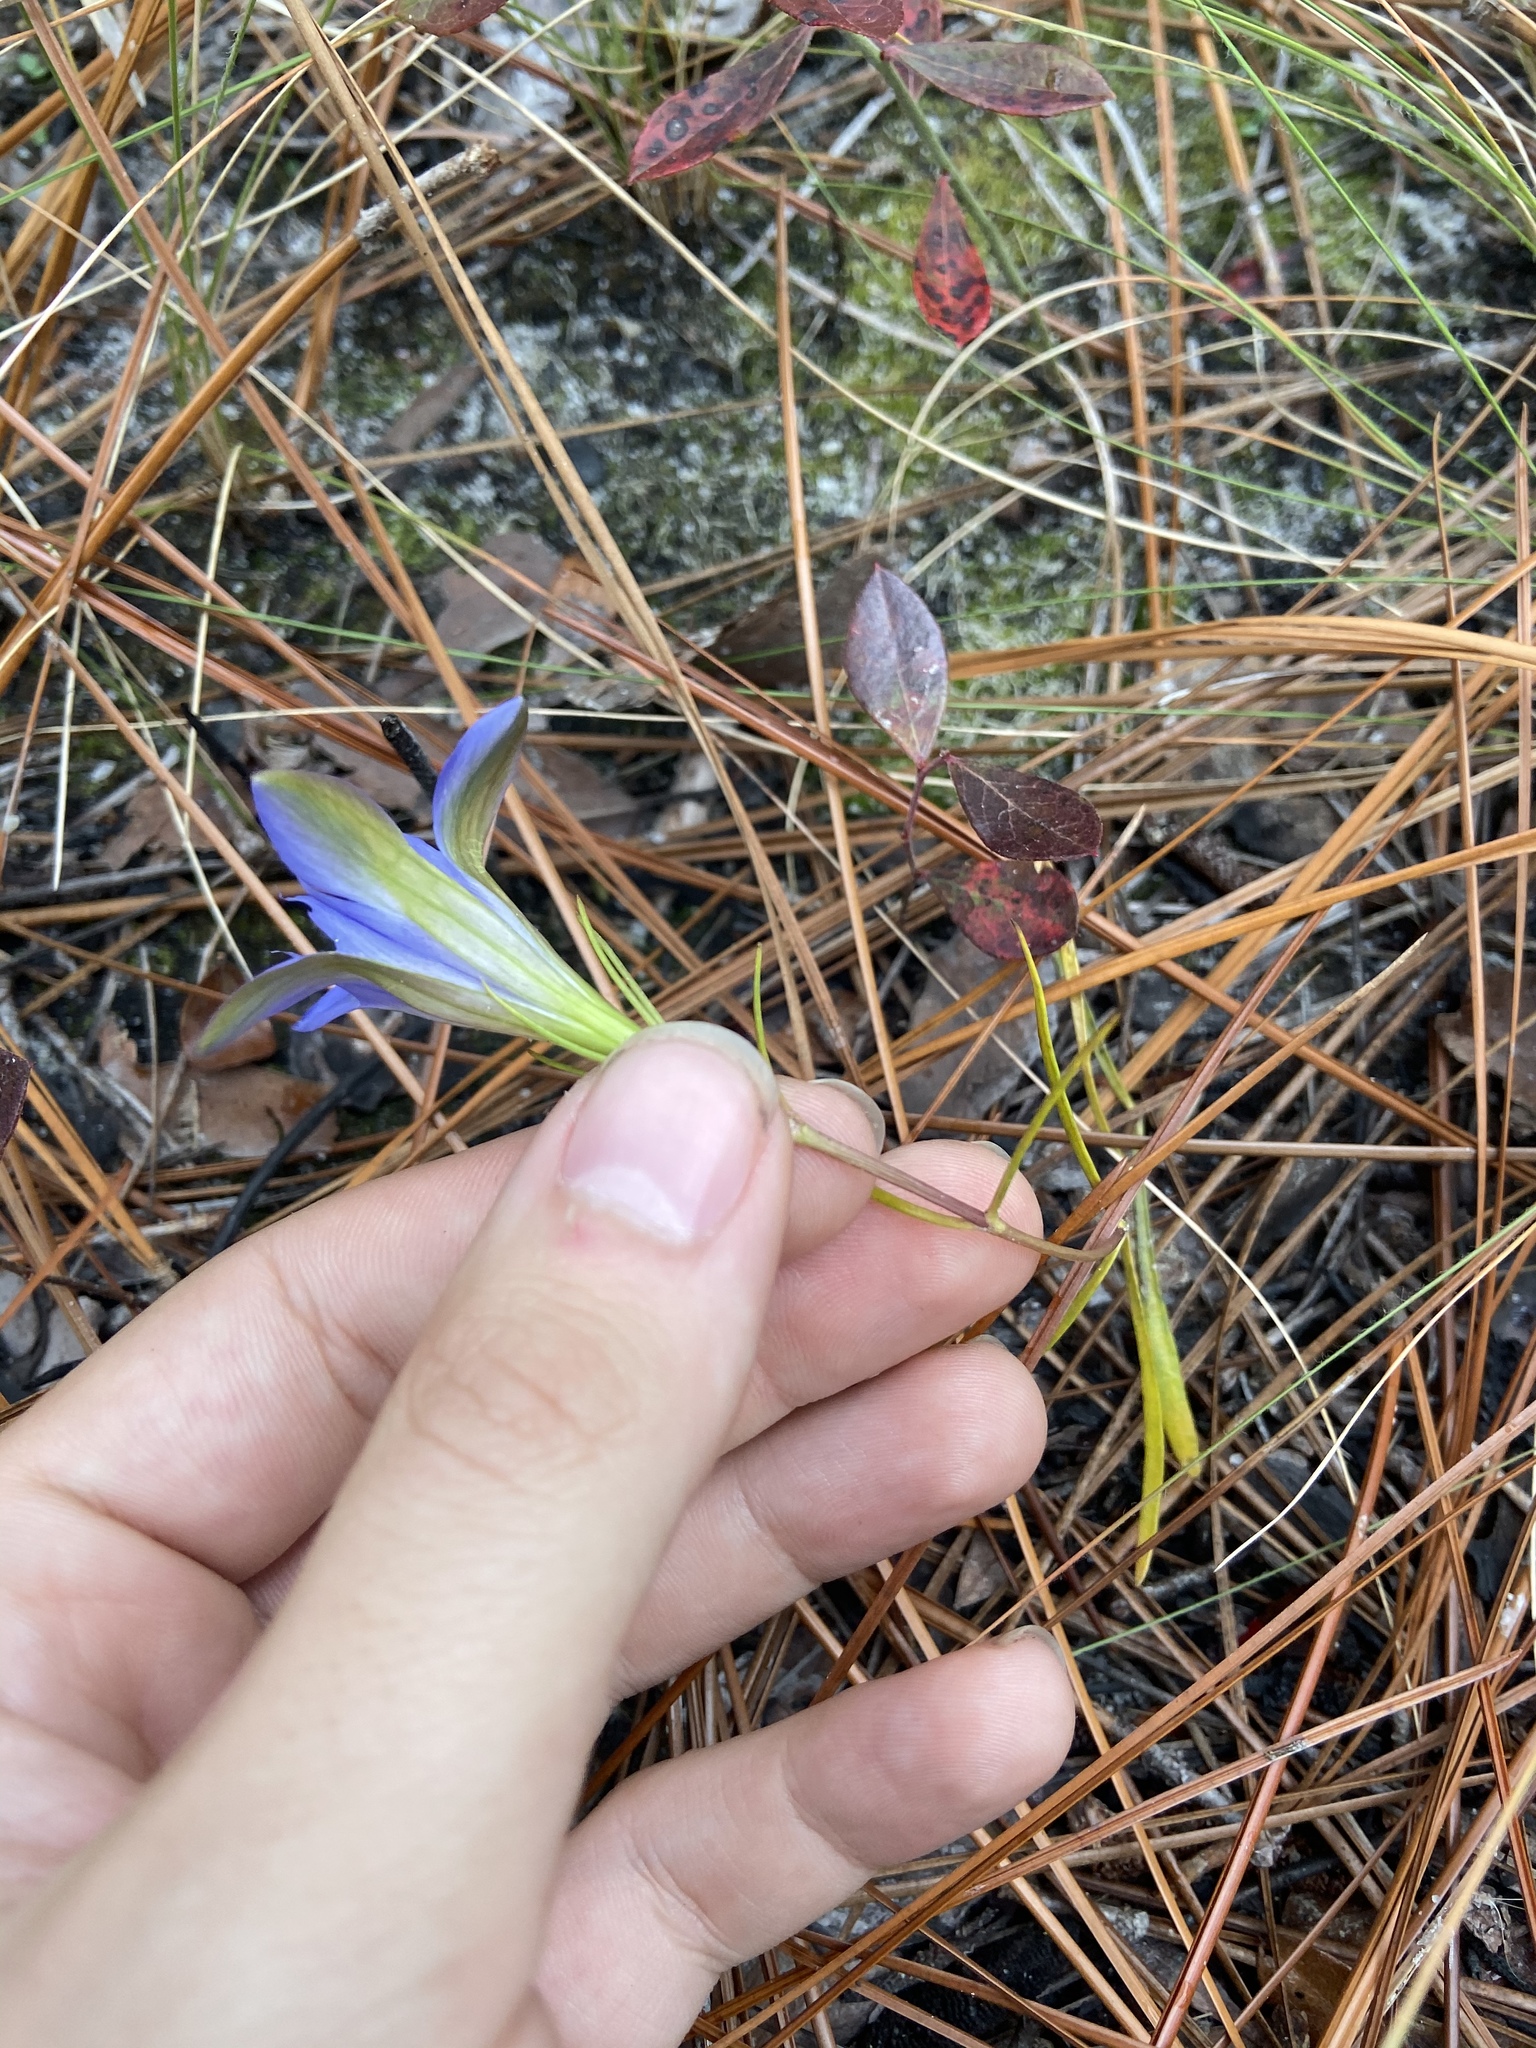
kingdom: Plantae
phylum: Tracheophyta
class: Magnoliopsida
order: Gentianales
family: Gentianaceae
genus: Gentiana
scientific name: Gentiana autumnalis
